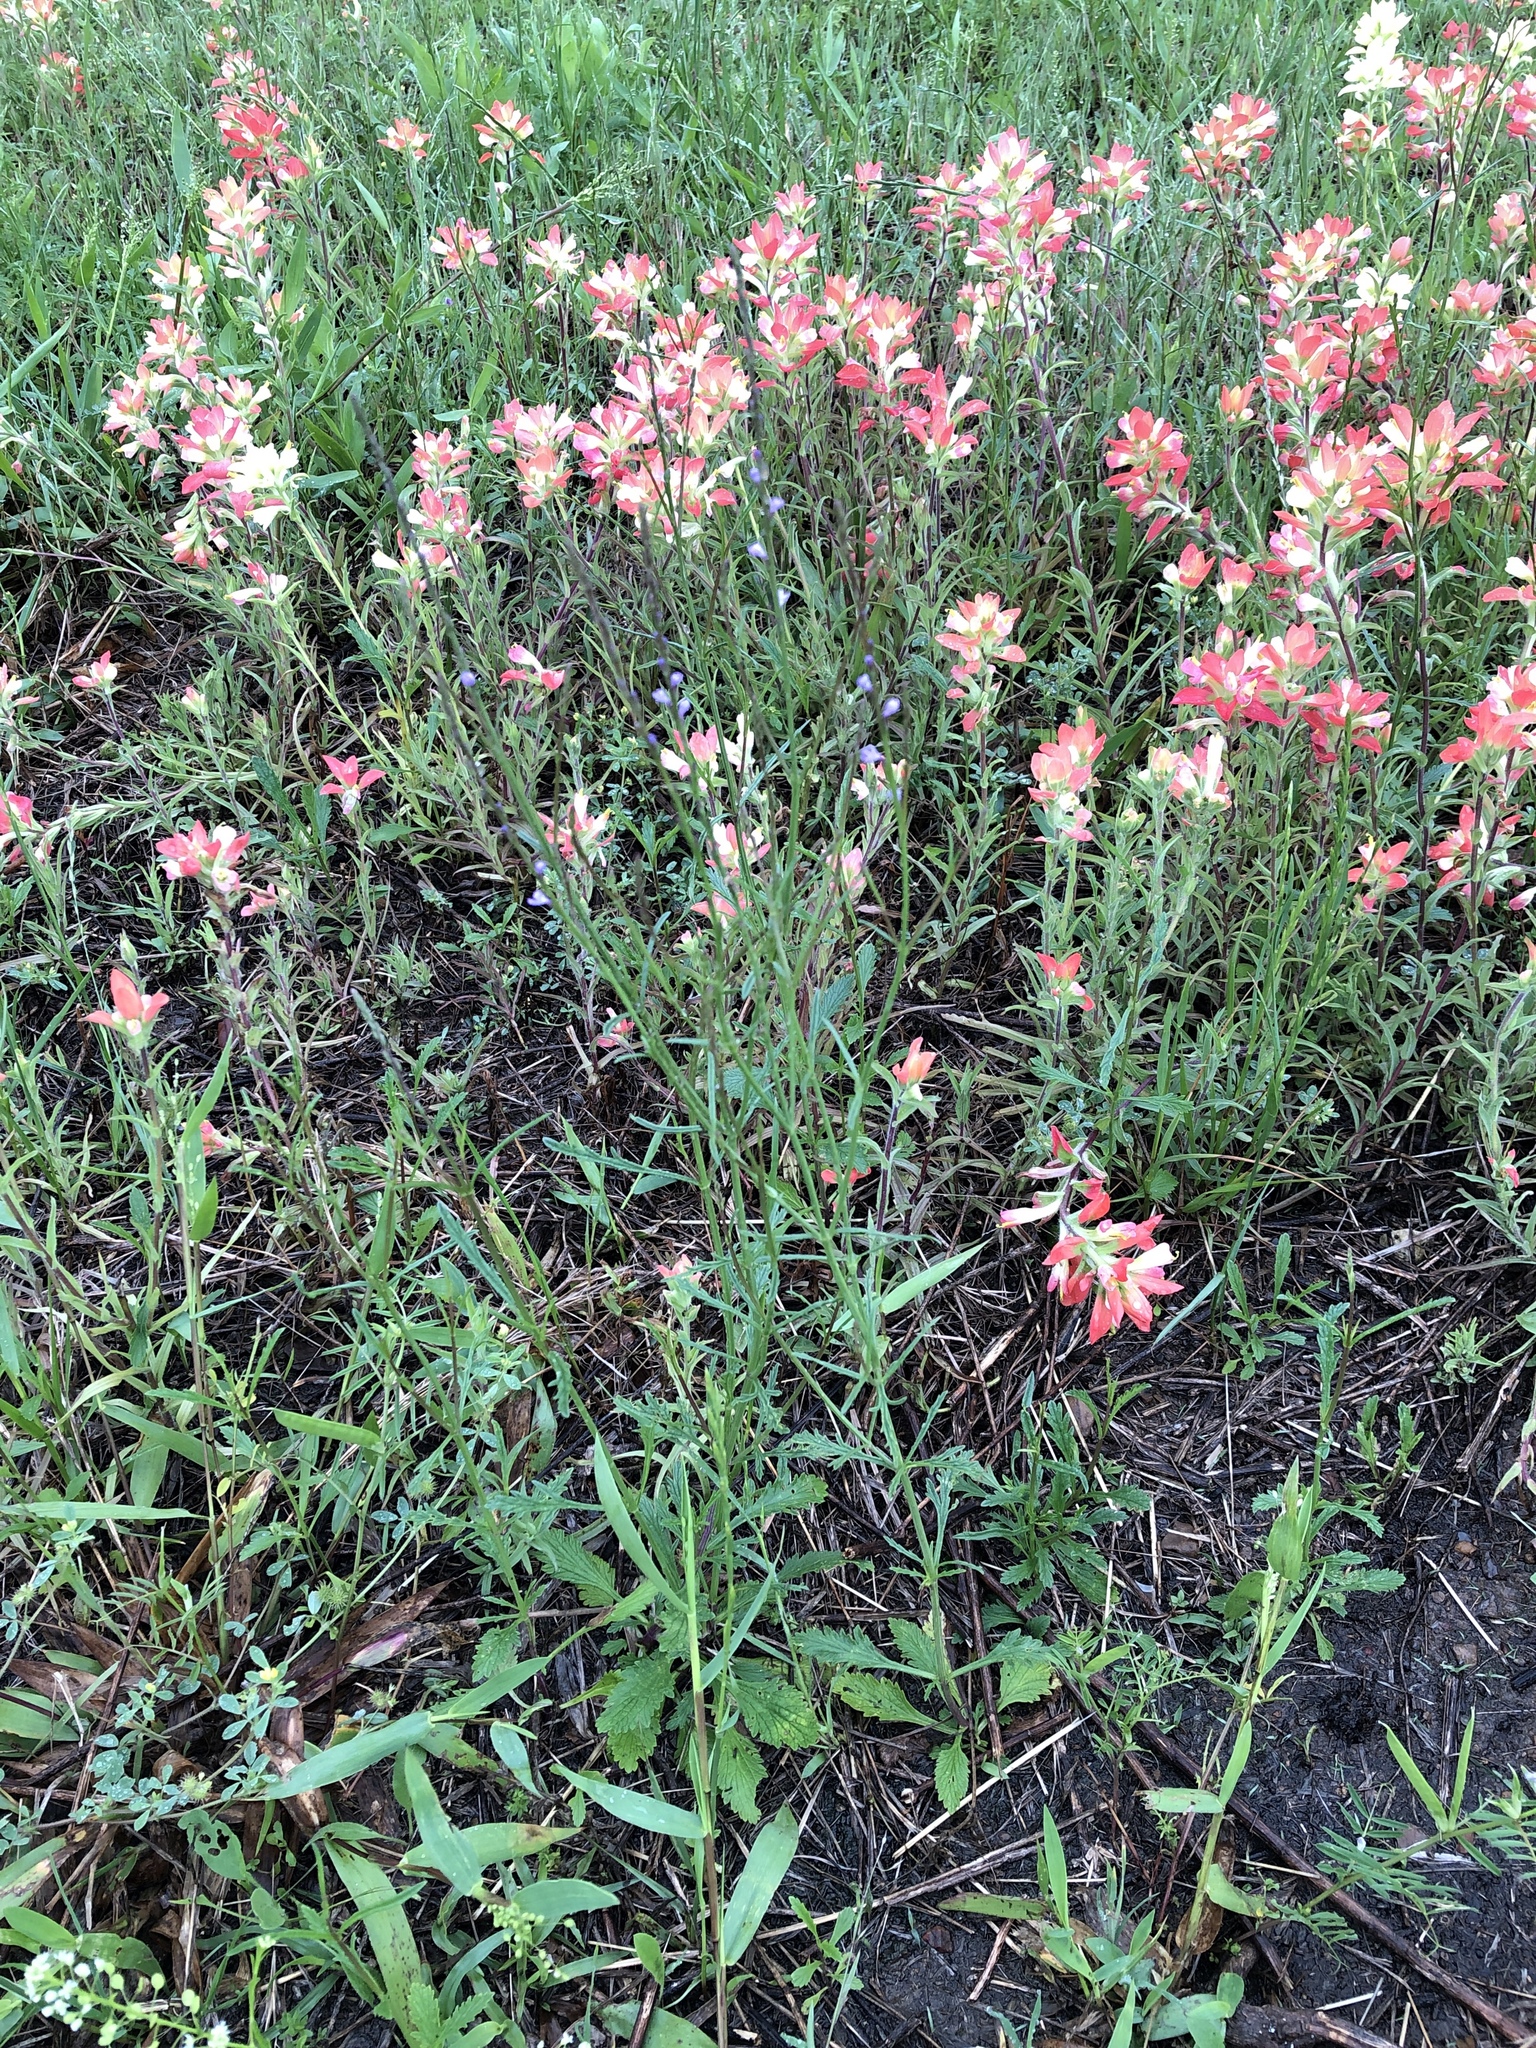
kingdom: Plantae
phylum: Tracheophyta
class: Magnoliopsida
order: Lamiales
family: Verbenaceae
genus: Verbena
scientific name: Verbena halei
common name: Texas vervain
